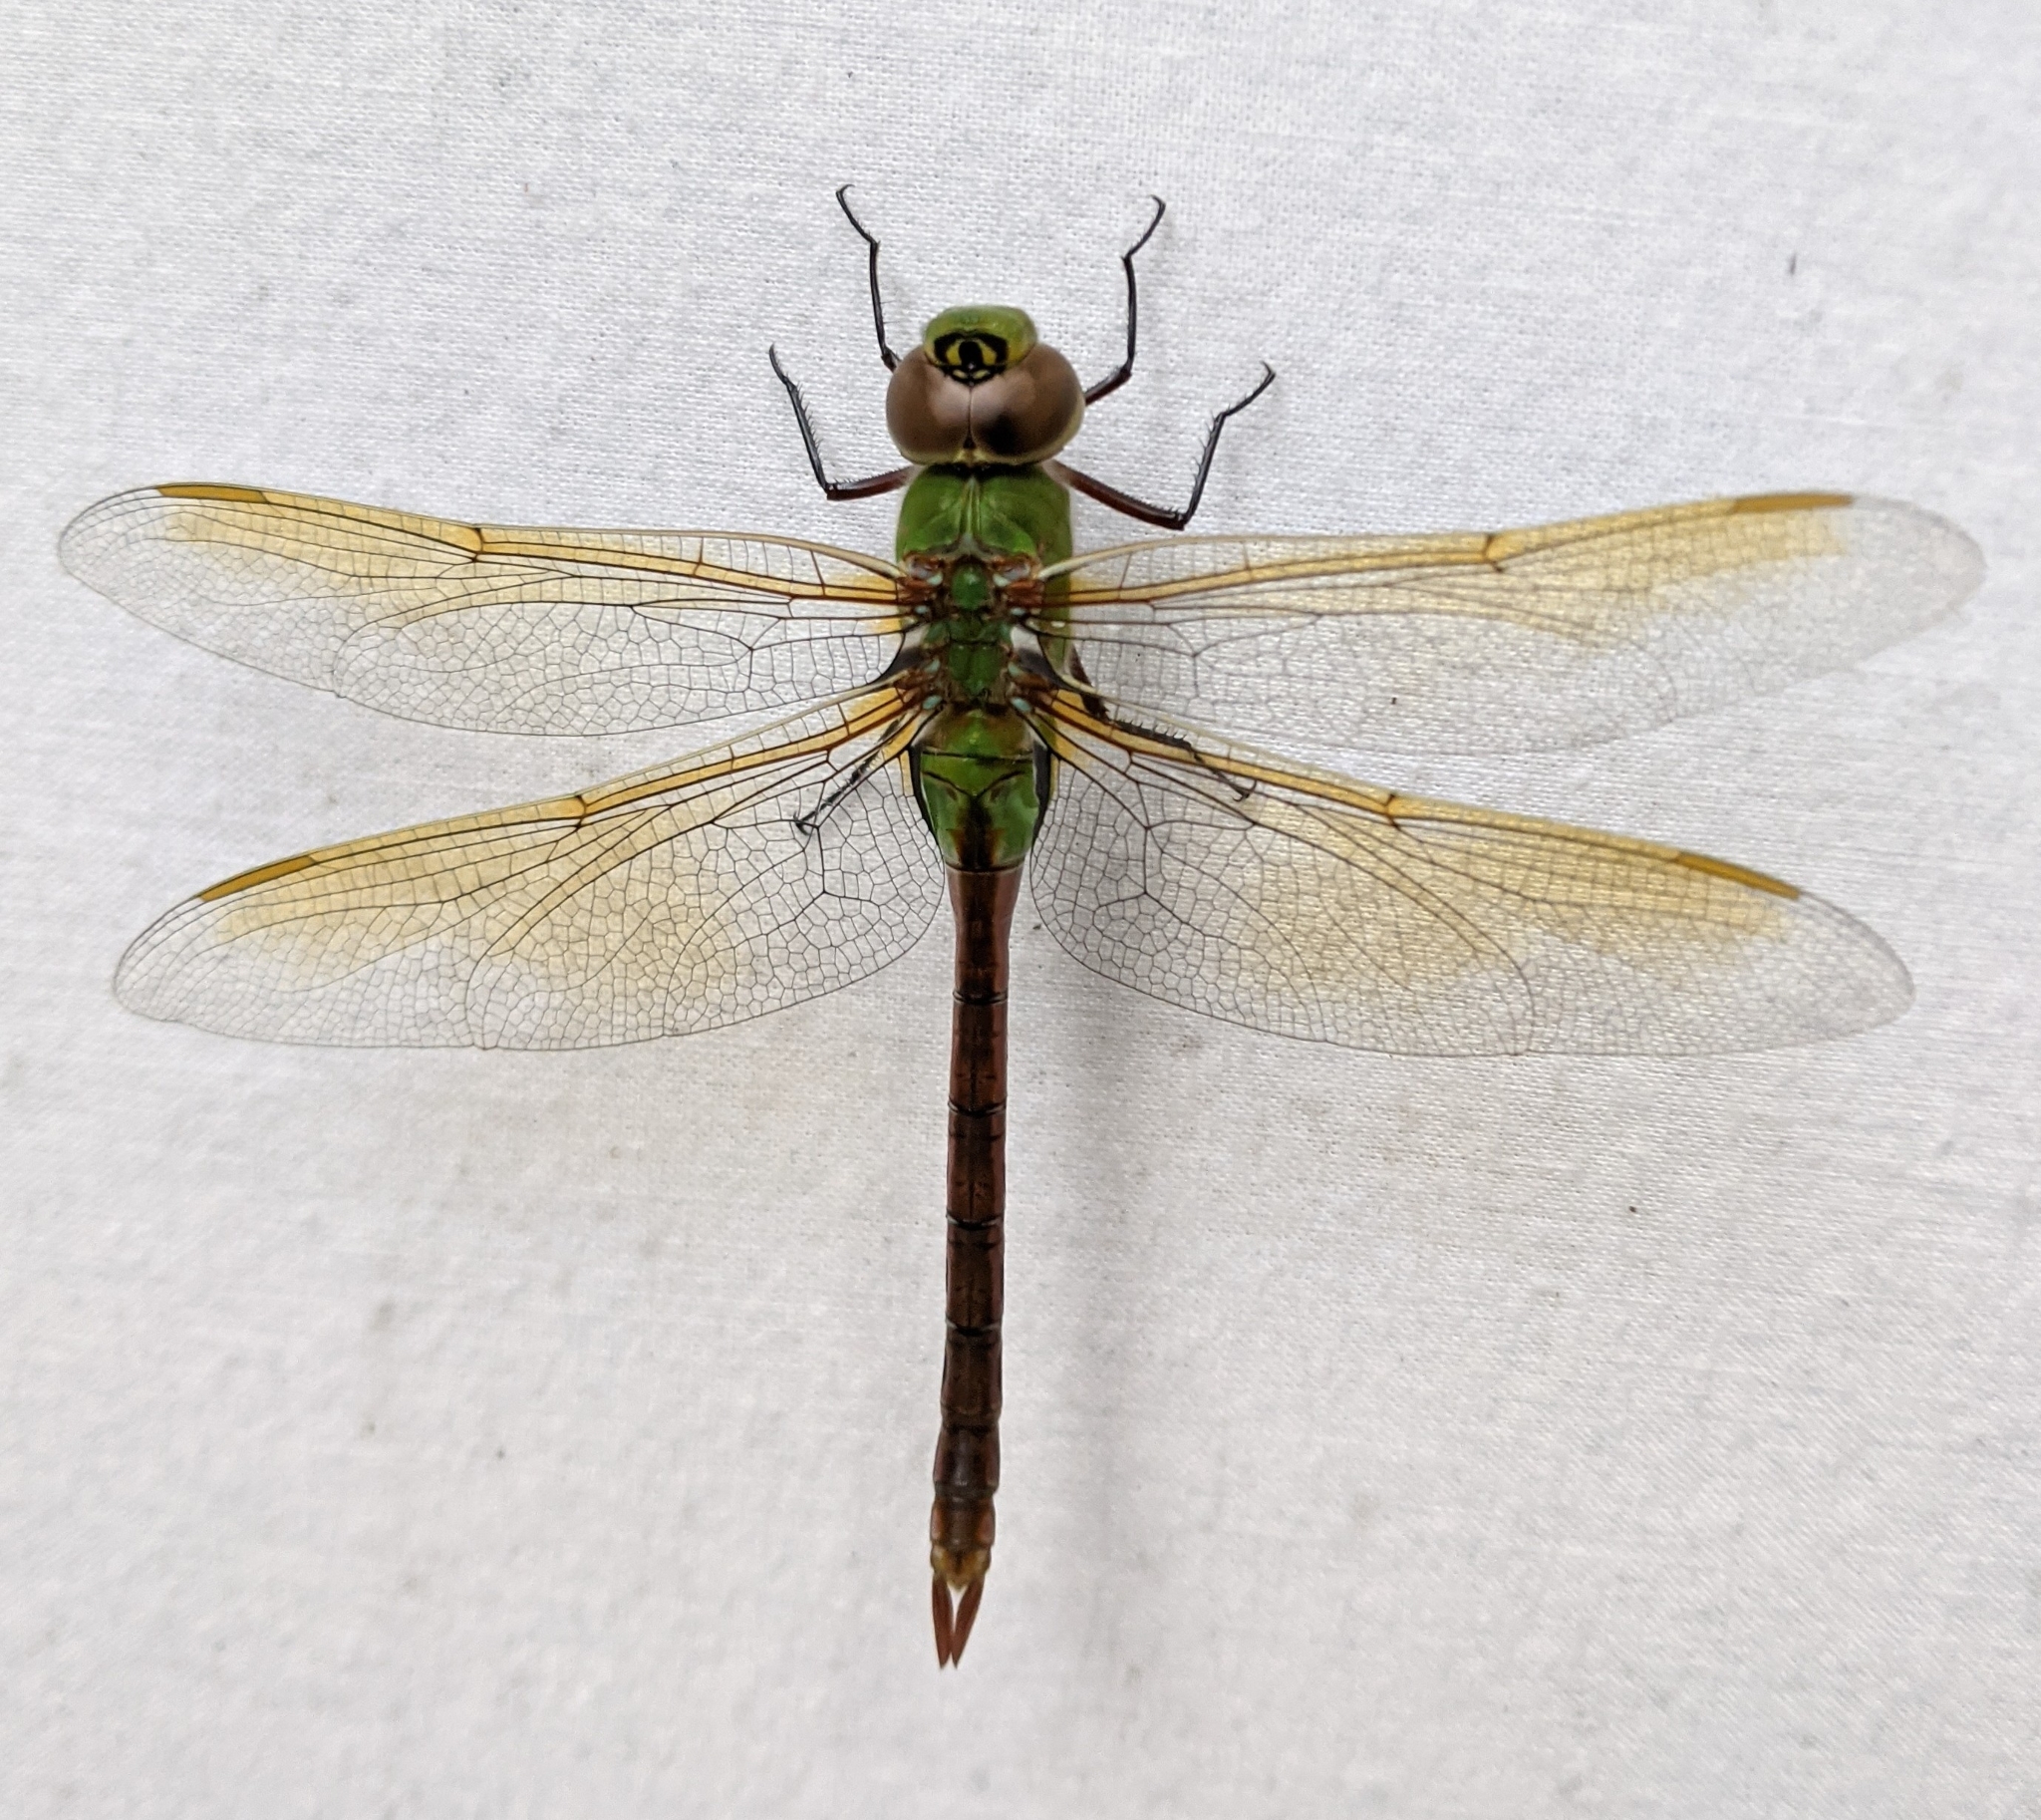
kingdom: Animalia
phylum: Arthropoda
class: Insecta
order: Odonata
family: Aeshnidae
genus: Anax
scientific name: Anax junius
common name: Common green darner
